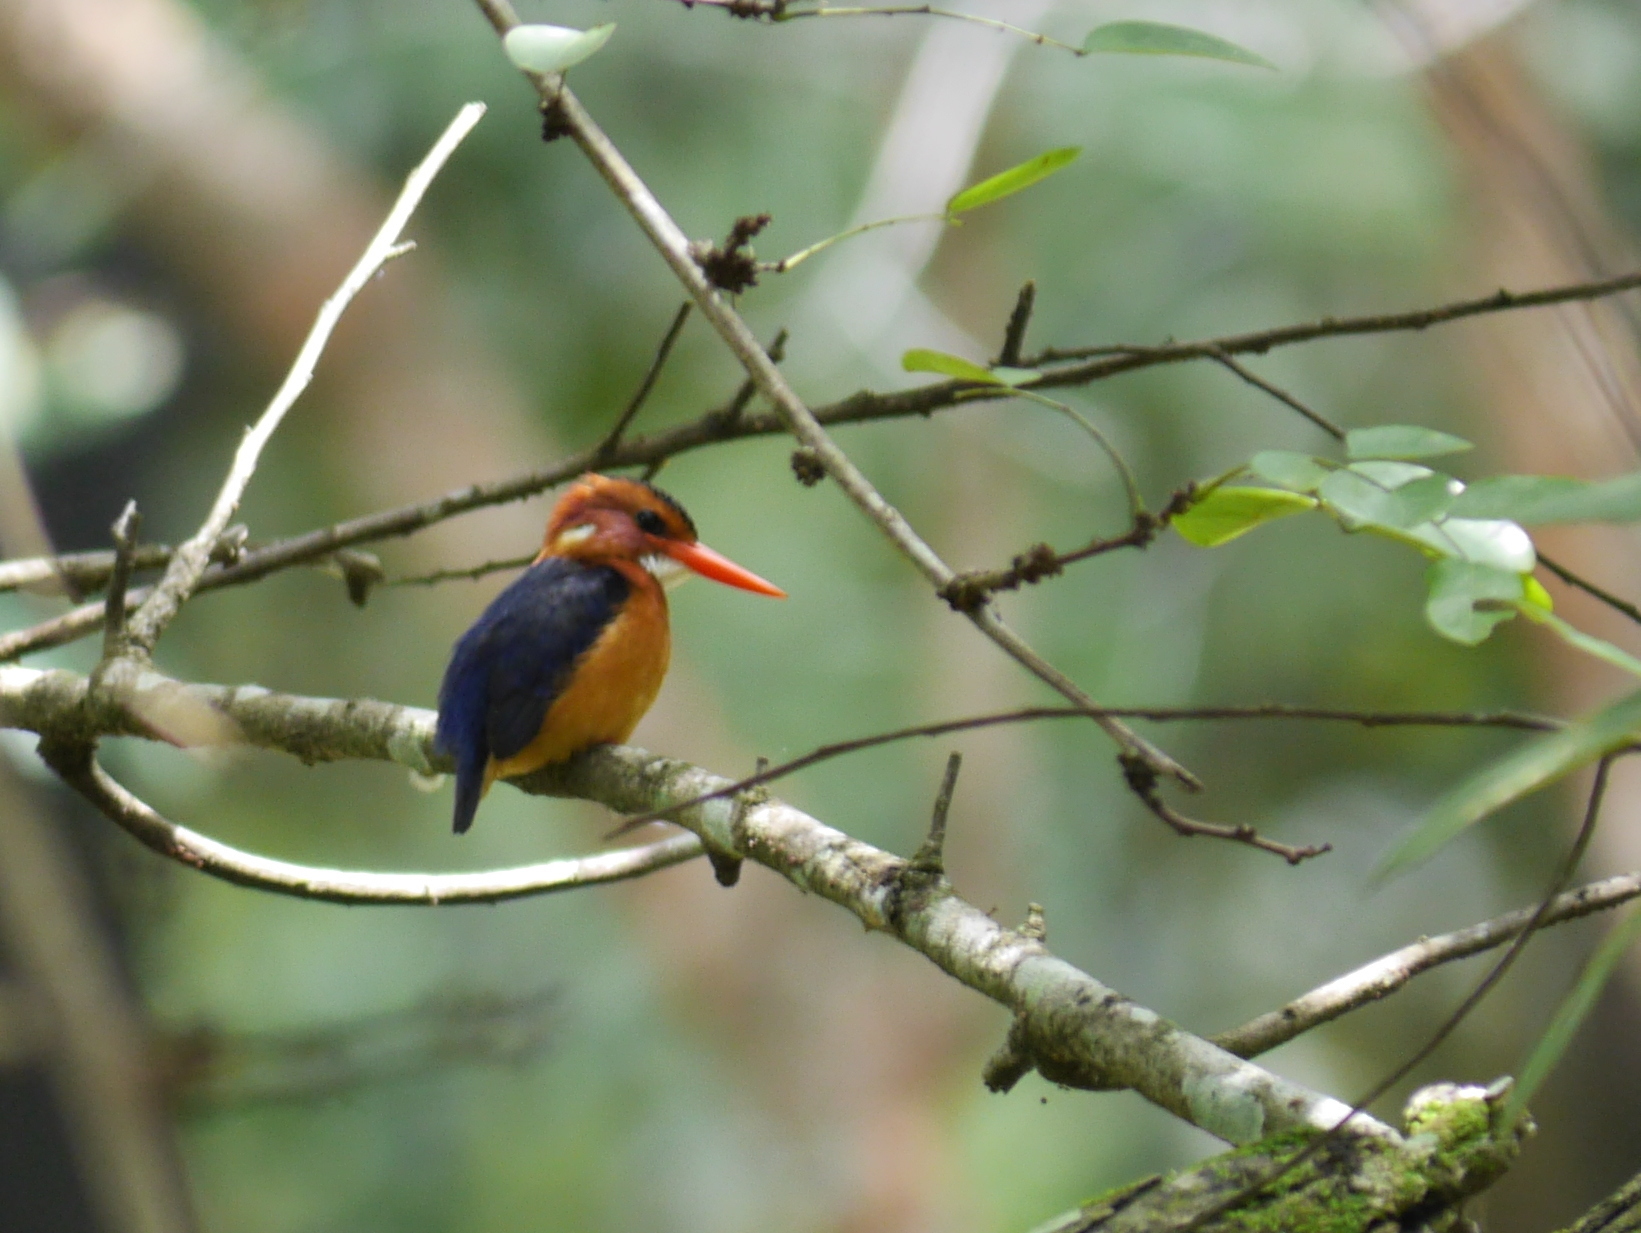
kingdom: Animalia
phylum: Chordata
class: Aves
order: Coraciiformes
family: Alcedinidae
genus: Ispidina
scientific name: Ispidina picta
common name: African pygmy-kingfisher
